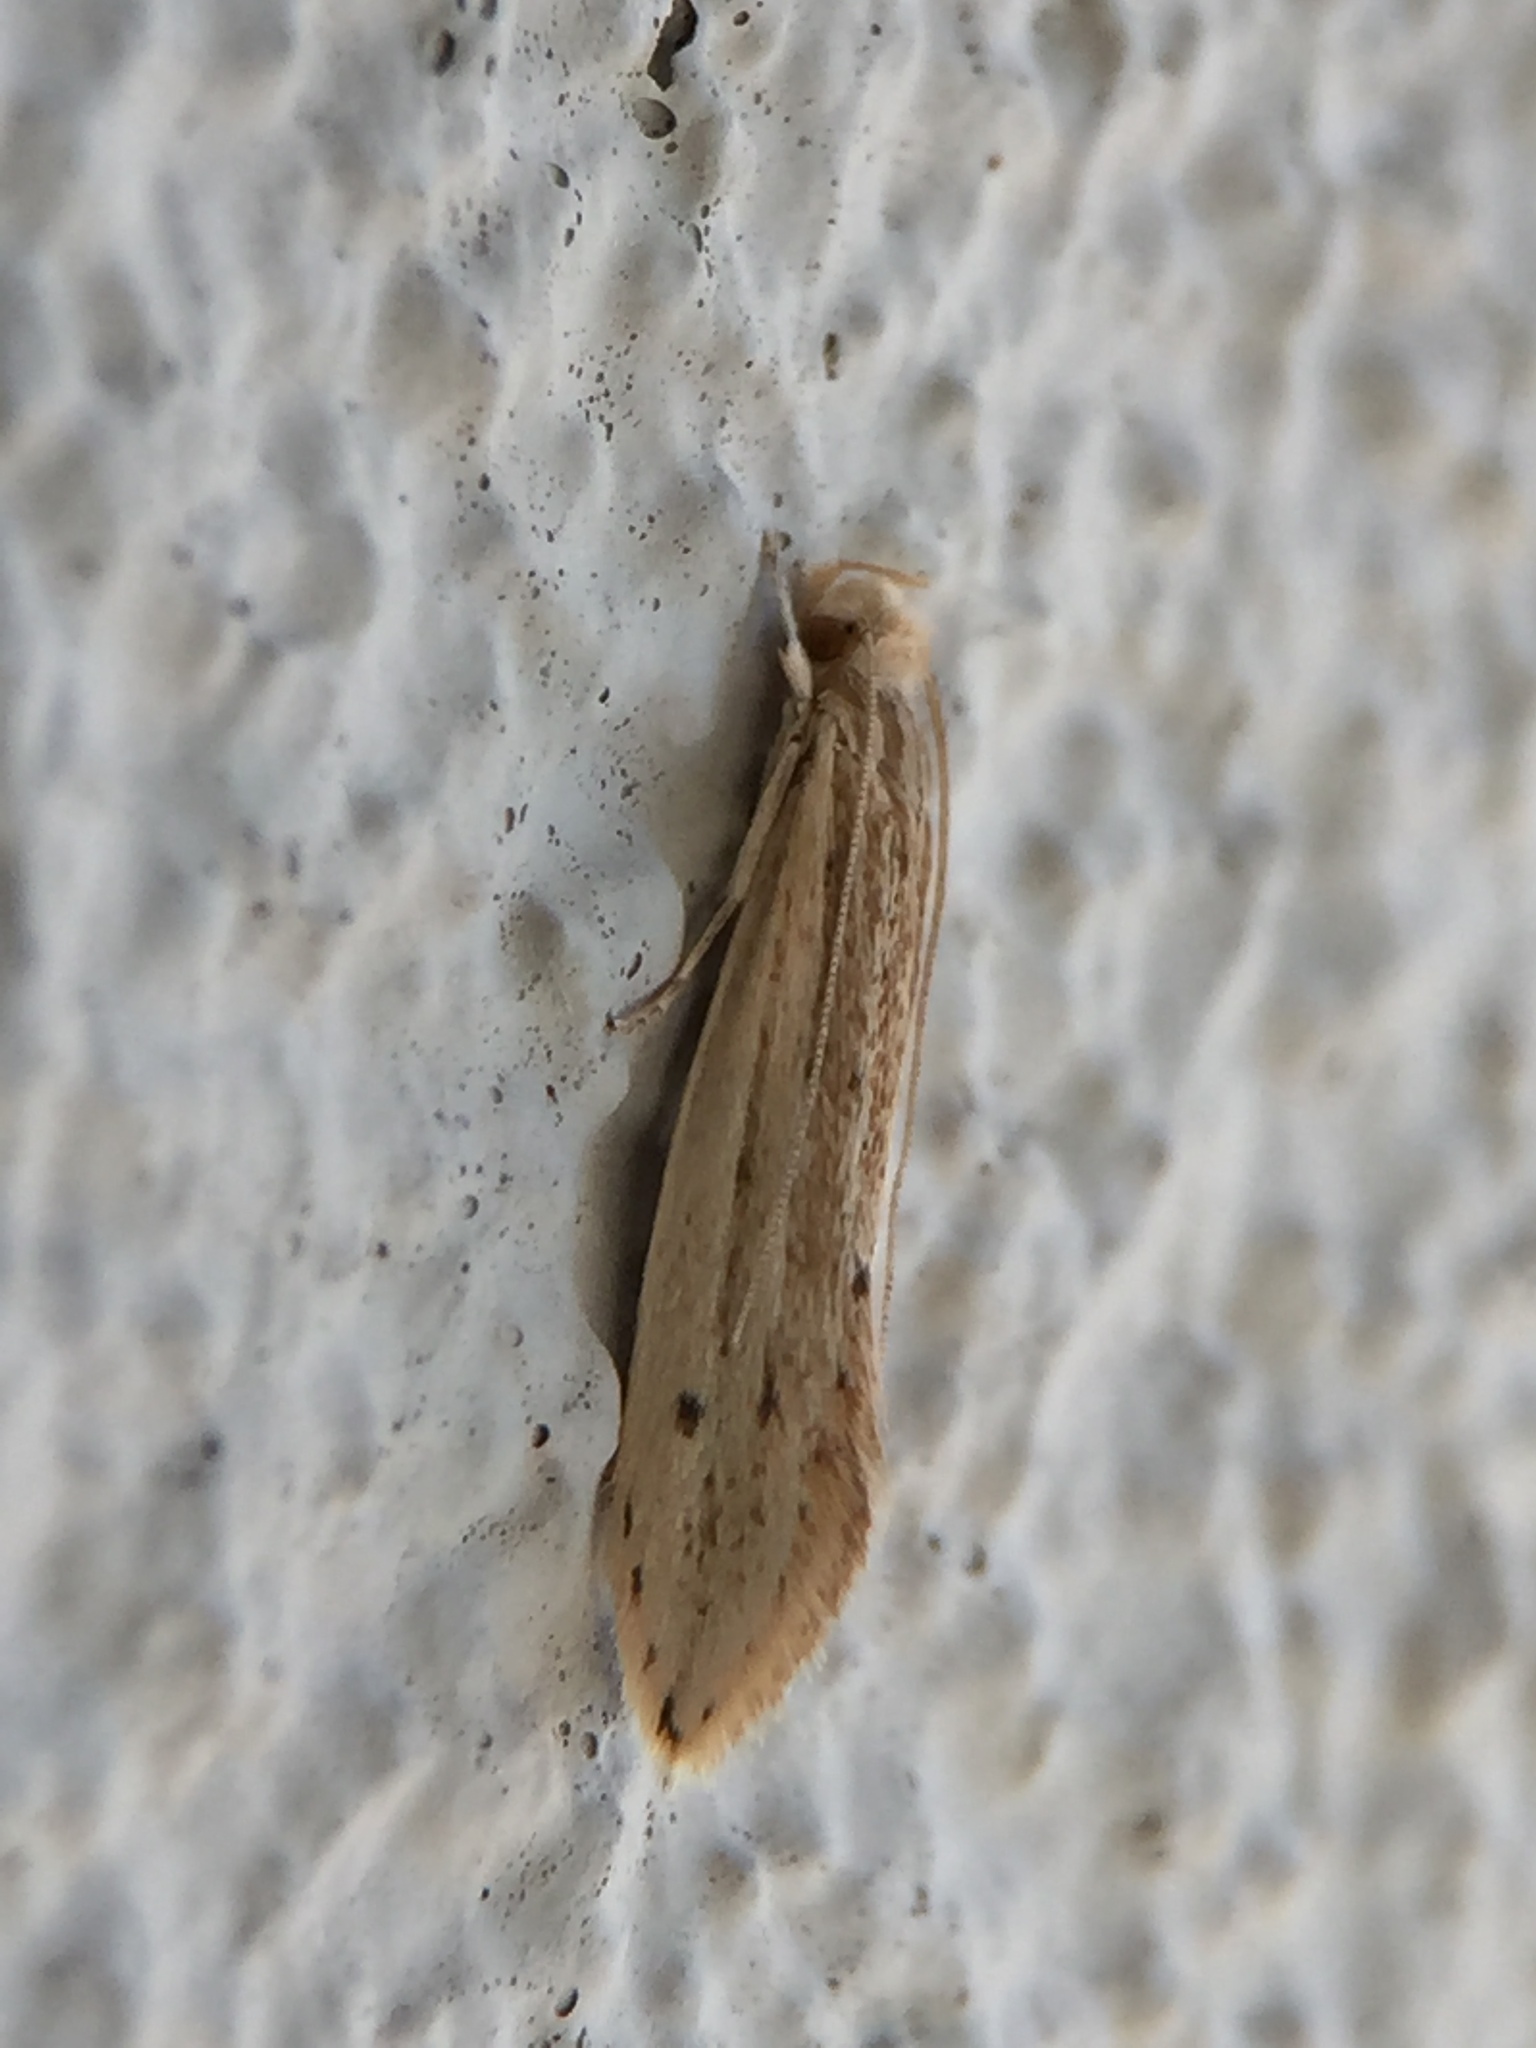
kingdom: Animalia
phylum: Arthropoda
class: Insecta
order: Lepidoptera
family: Tineidae
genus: Prothinodes
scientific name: Prothinodes lutata
